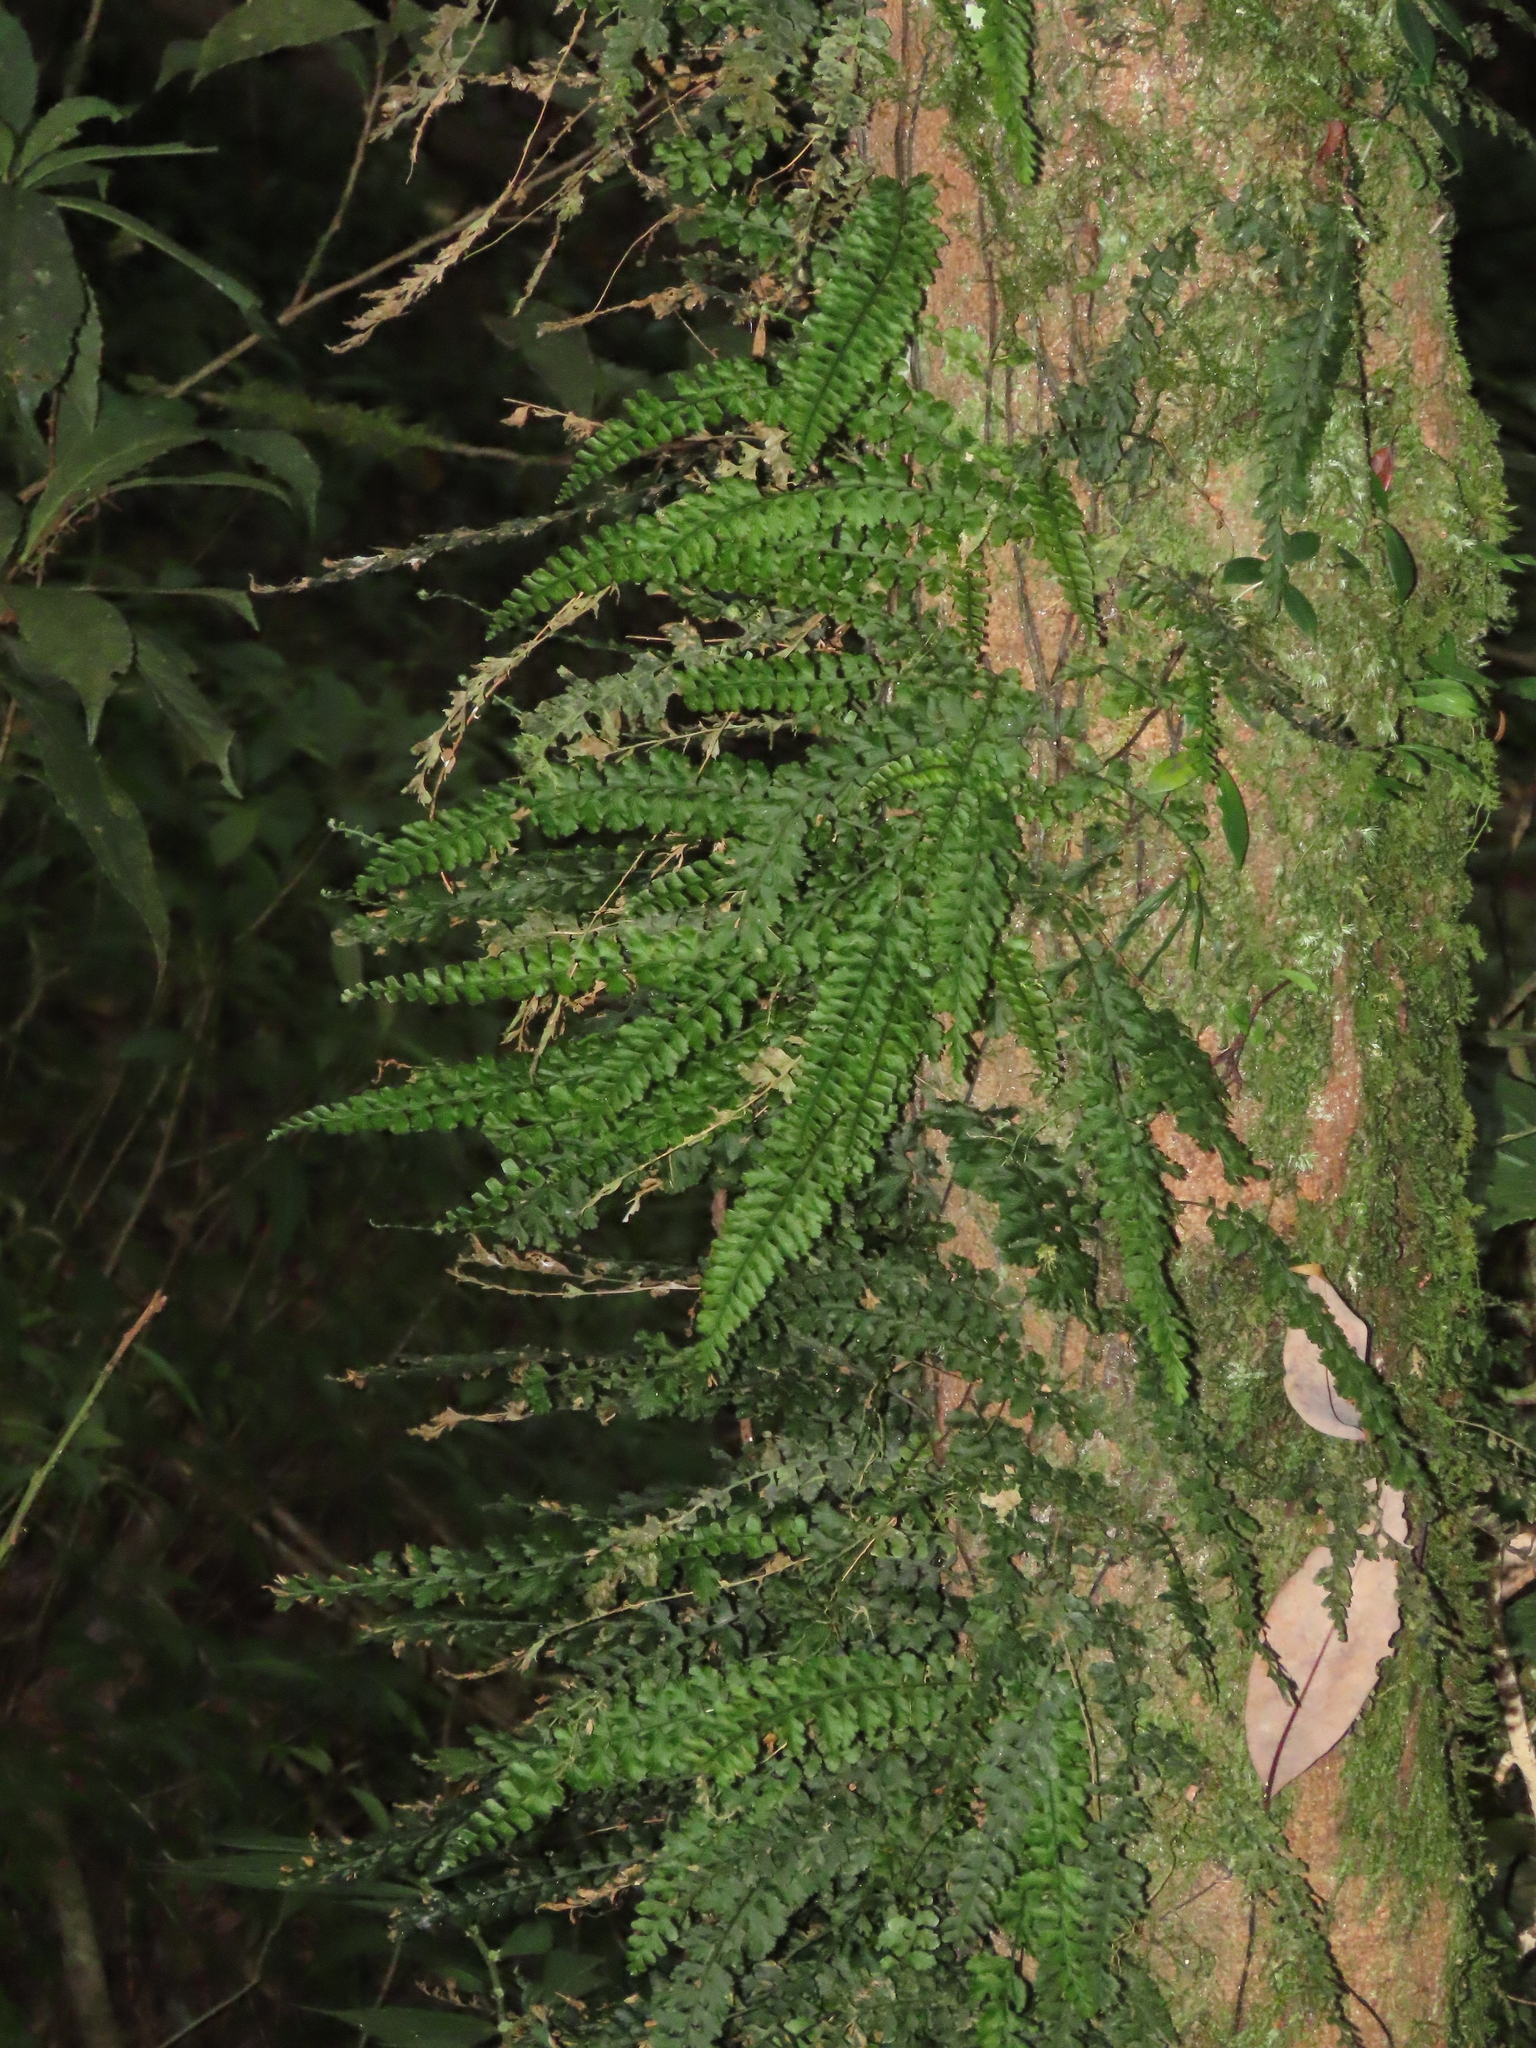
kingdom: Plantae
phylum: Tracheophyta
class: Polypodiopsida
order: Hymenophyllales
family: Hymenophyllaceae
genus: Vandenboschia
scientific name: Vandenboschia auriculata
